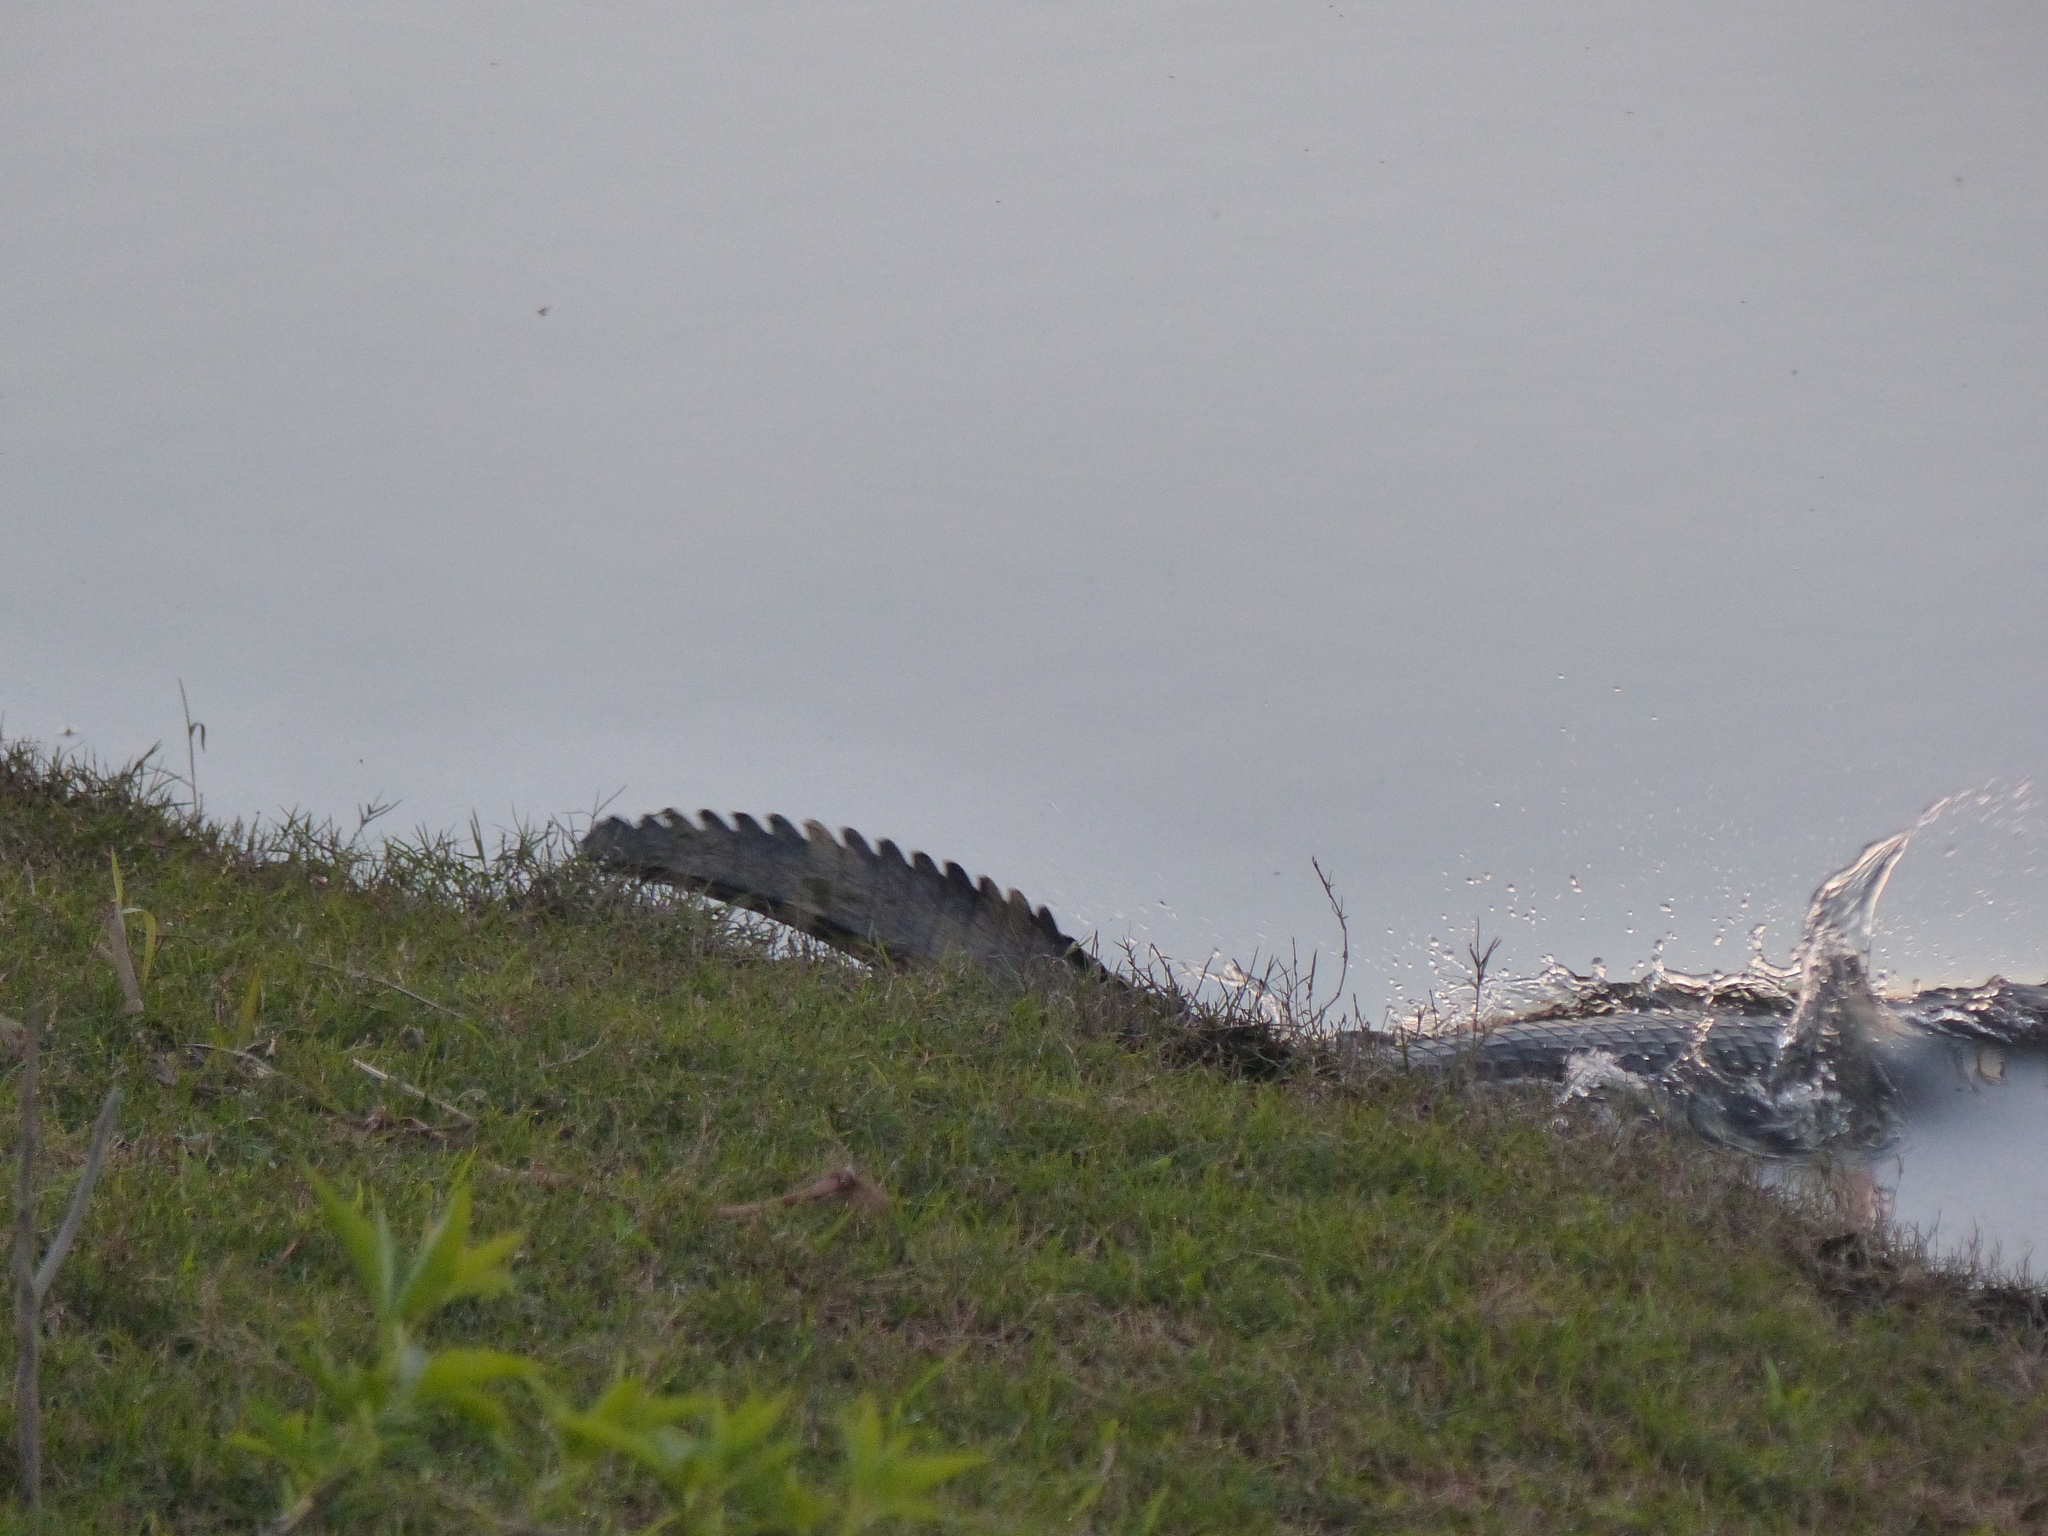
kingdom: Animalia
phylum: Chordata
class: Crocodylia
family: Alligatoridae
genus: Caiman
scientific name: Caiman yacare
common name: Yacare caiman
